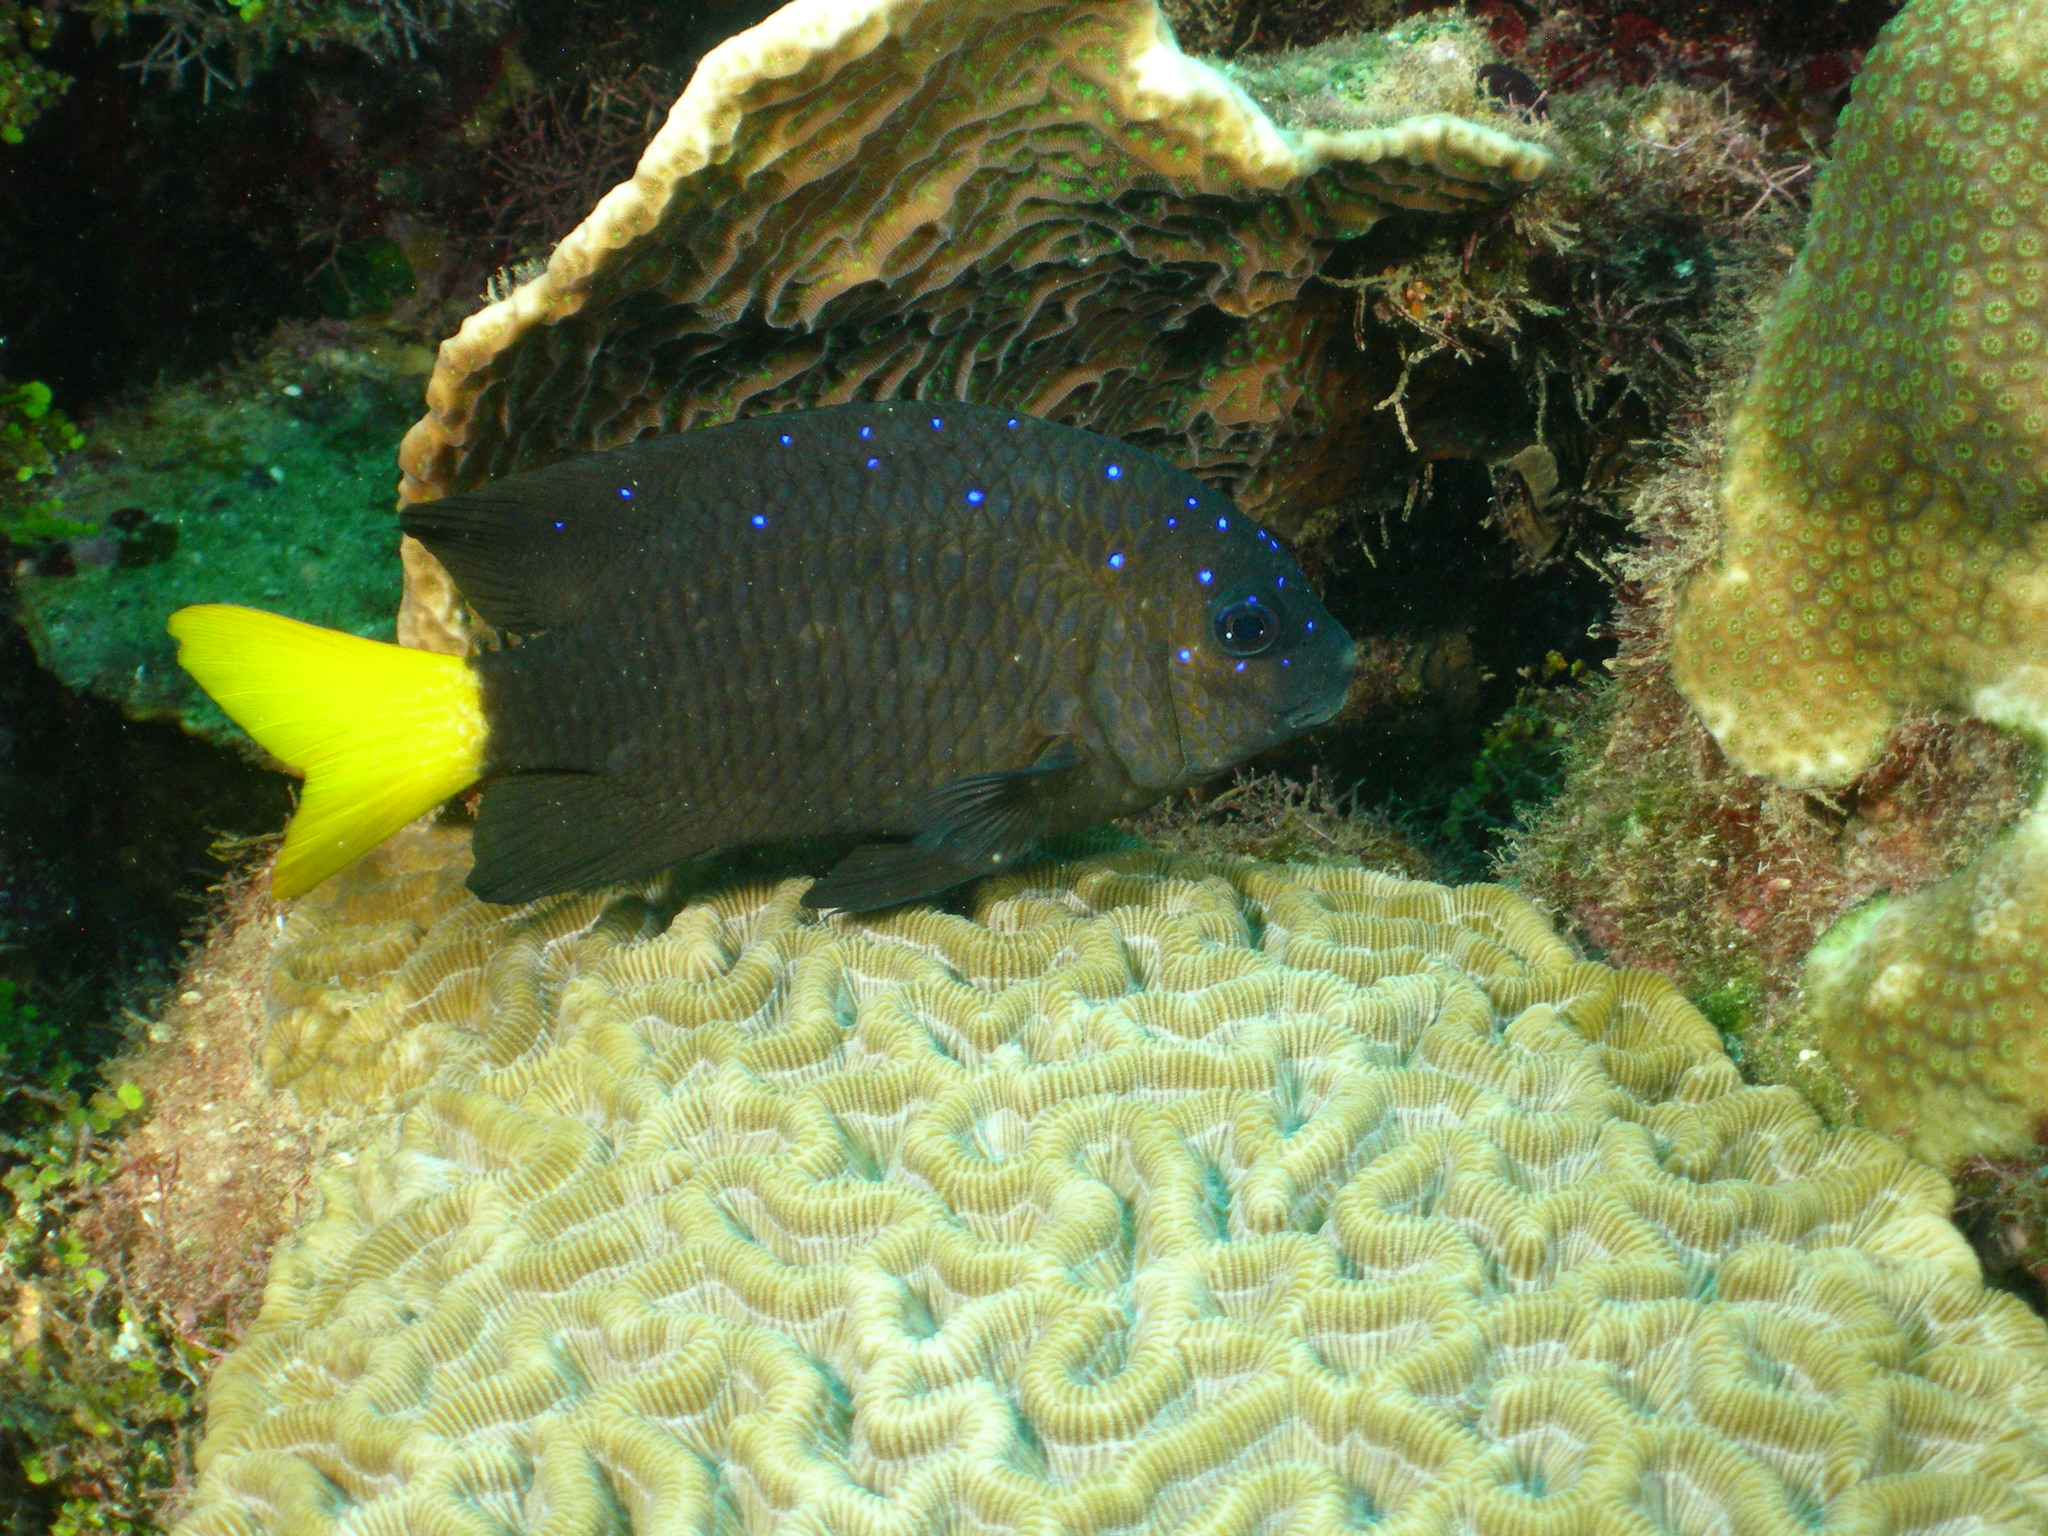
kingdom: Animalia
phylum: Chordata
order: Perciformes
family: Pomacentridae
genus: Microspathodon
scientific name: Microspathodon chrysurus
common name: Yellowtail damselfish
